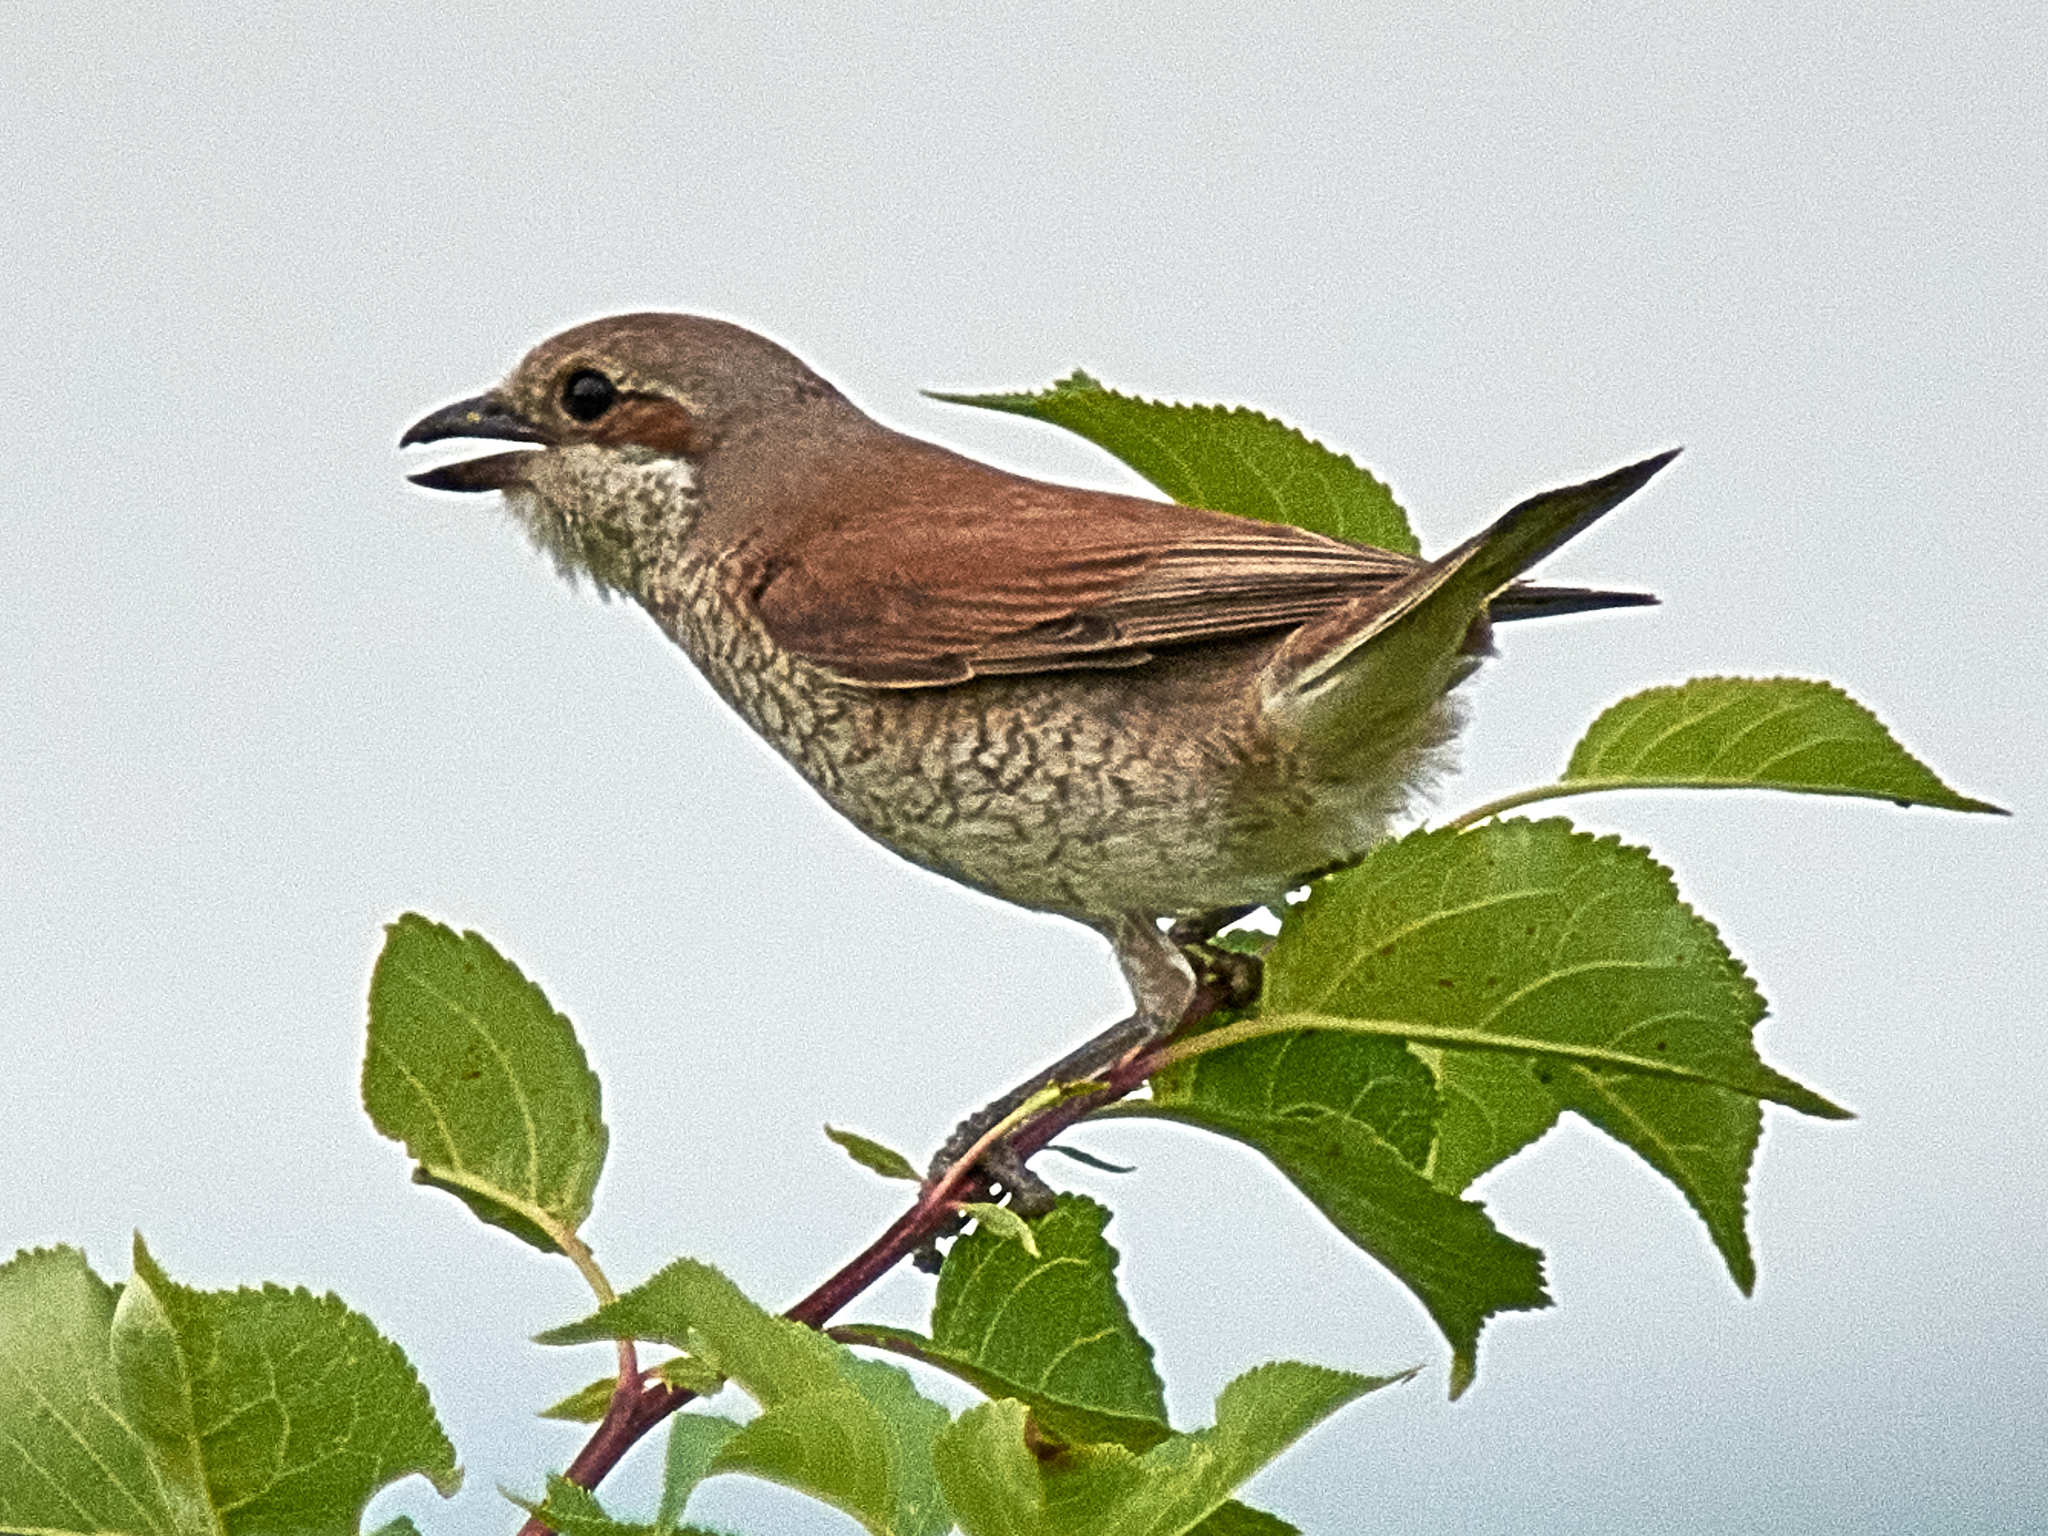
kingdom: Animalia
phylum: Chordata
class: Aves
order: Passeriformes
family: Laniidae
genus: Lanius
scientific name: Lanius collurio
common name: Red-backed shrike
